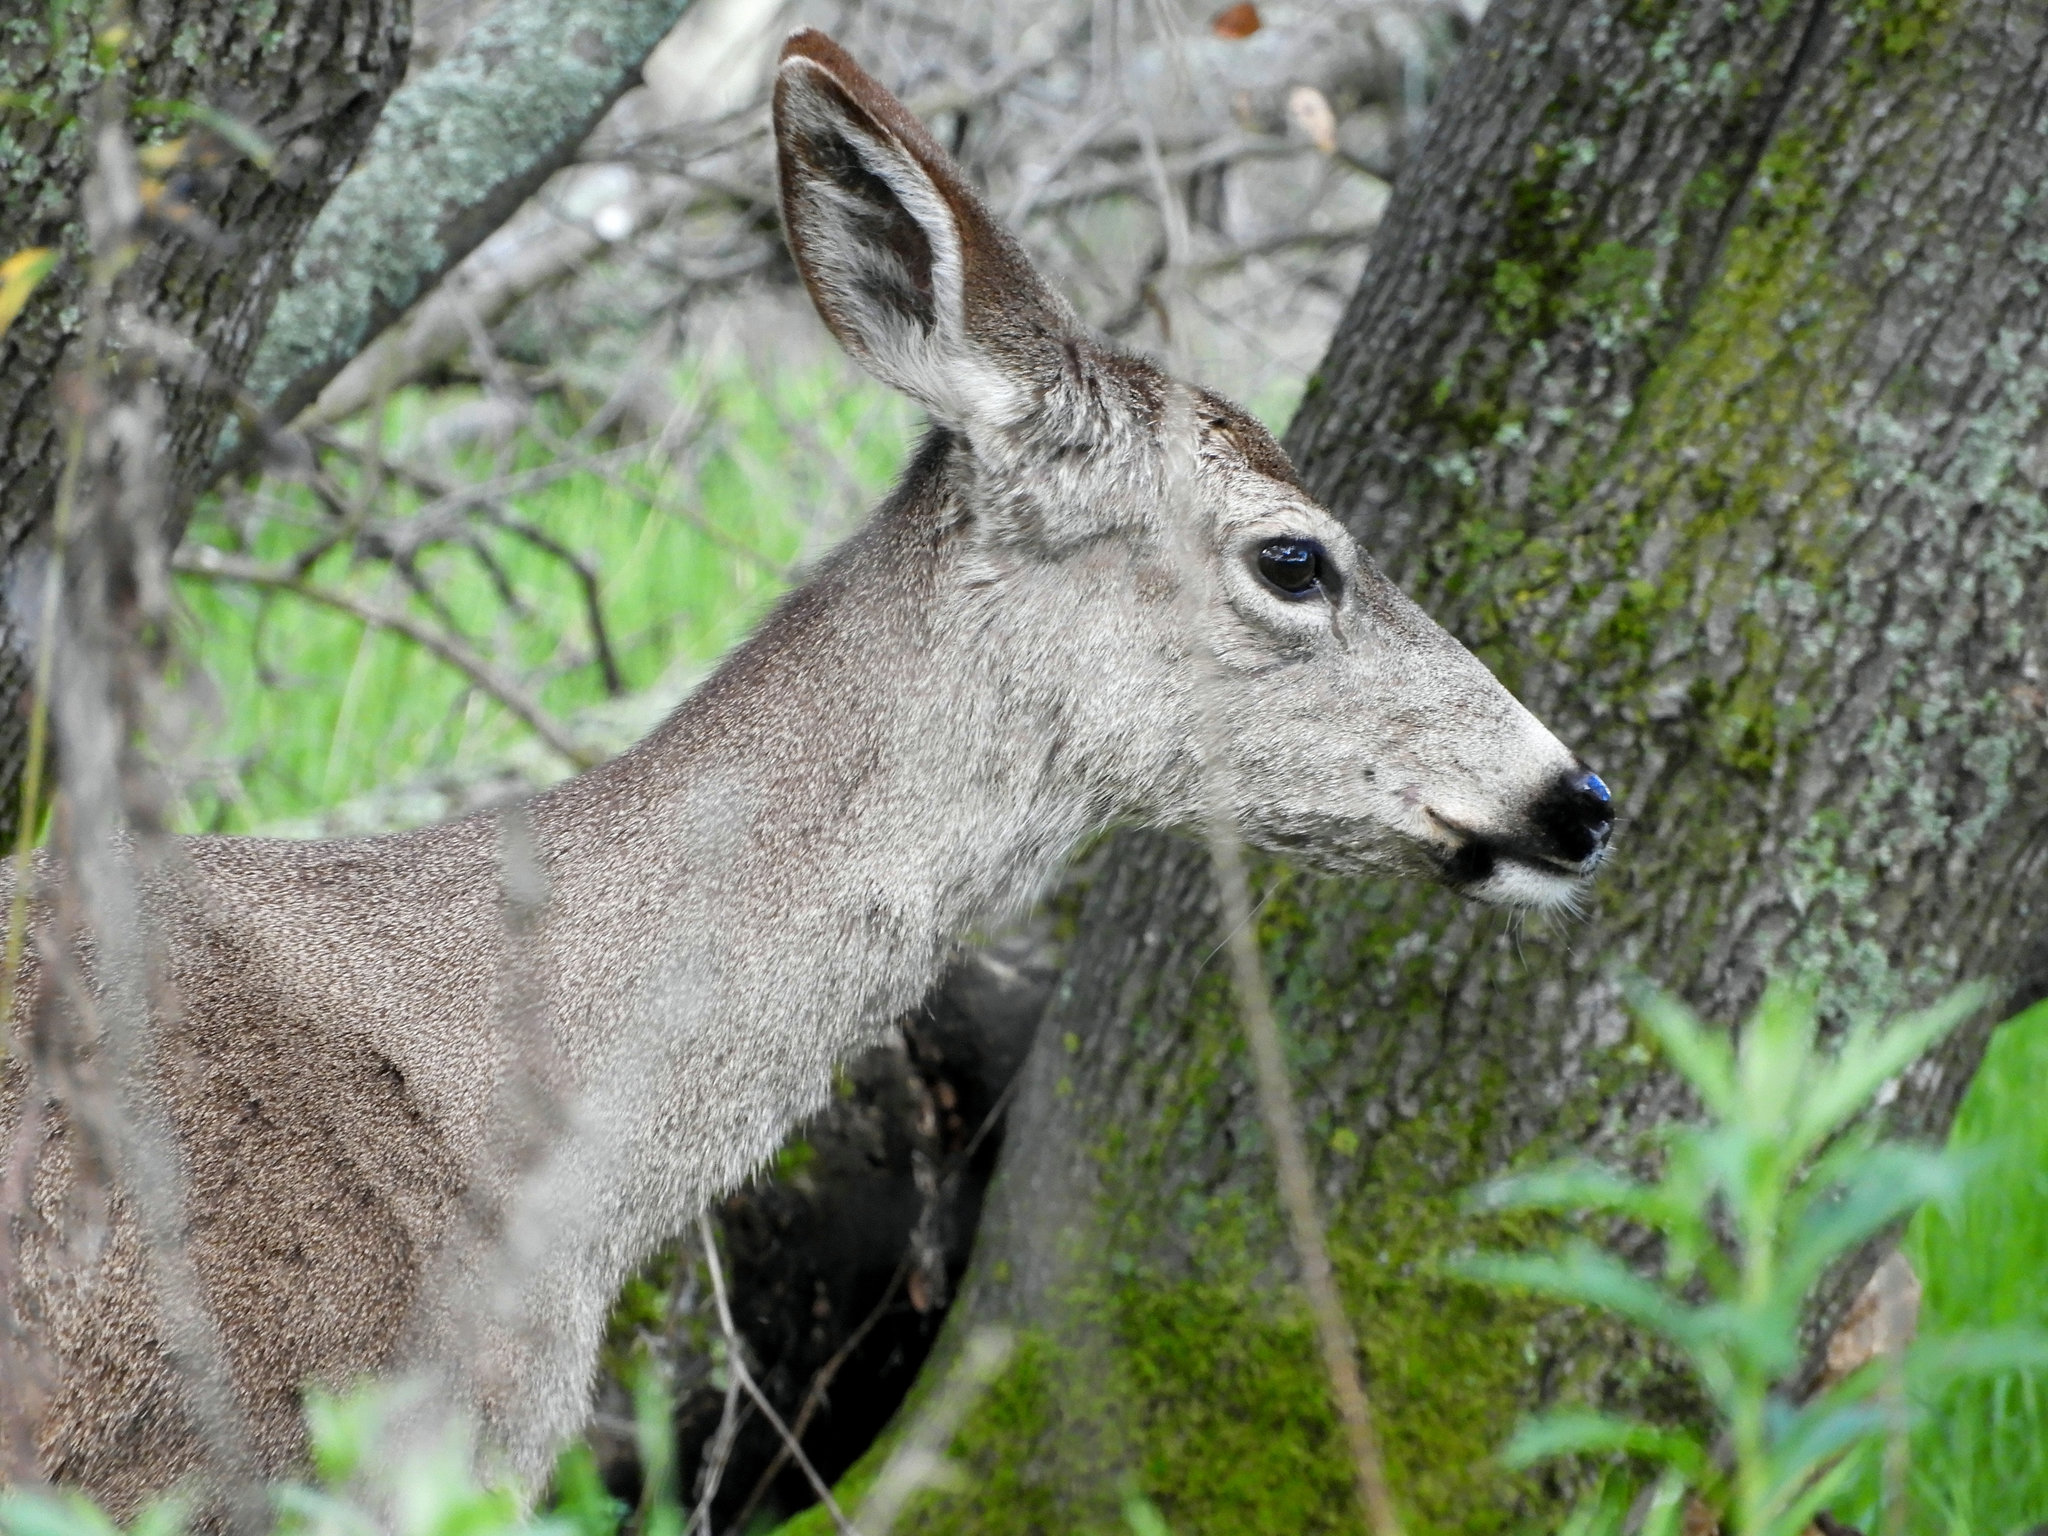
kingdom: Animalia
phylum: Chordata
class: Mammalia
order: Artiodactyla
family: Cervidae
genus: Odocoileus
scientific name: Odocoileus hemionus
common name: Mule deer
